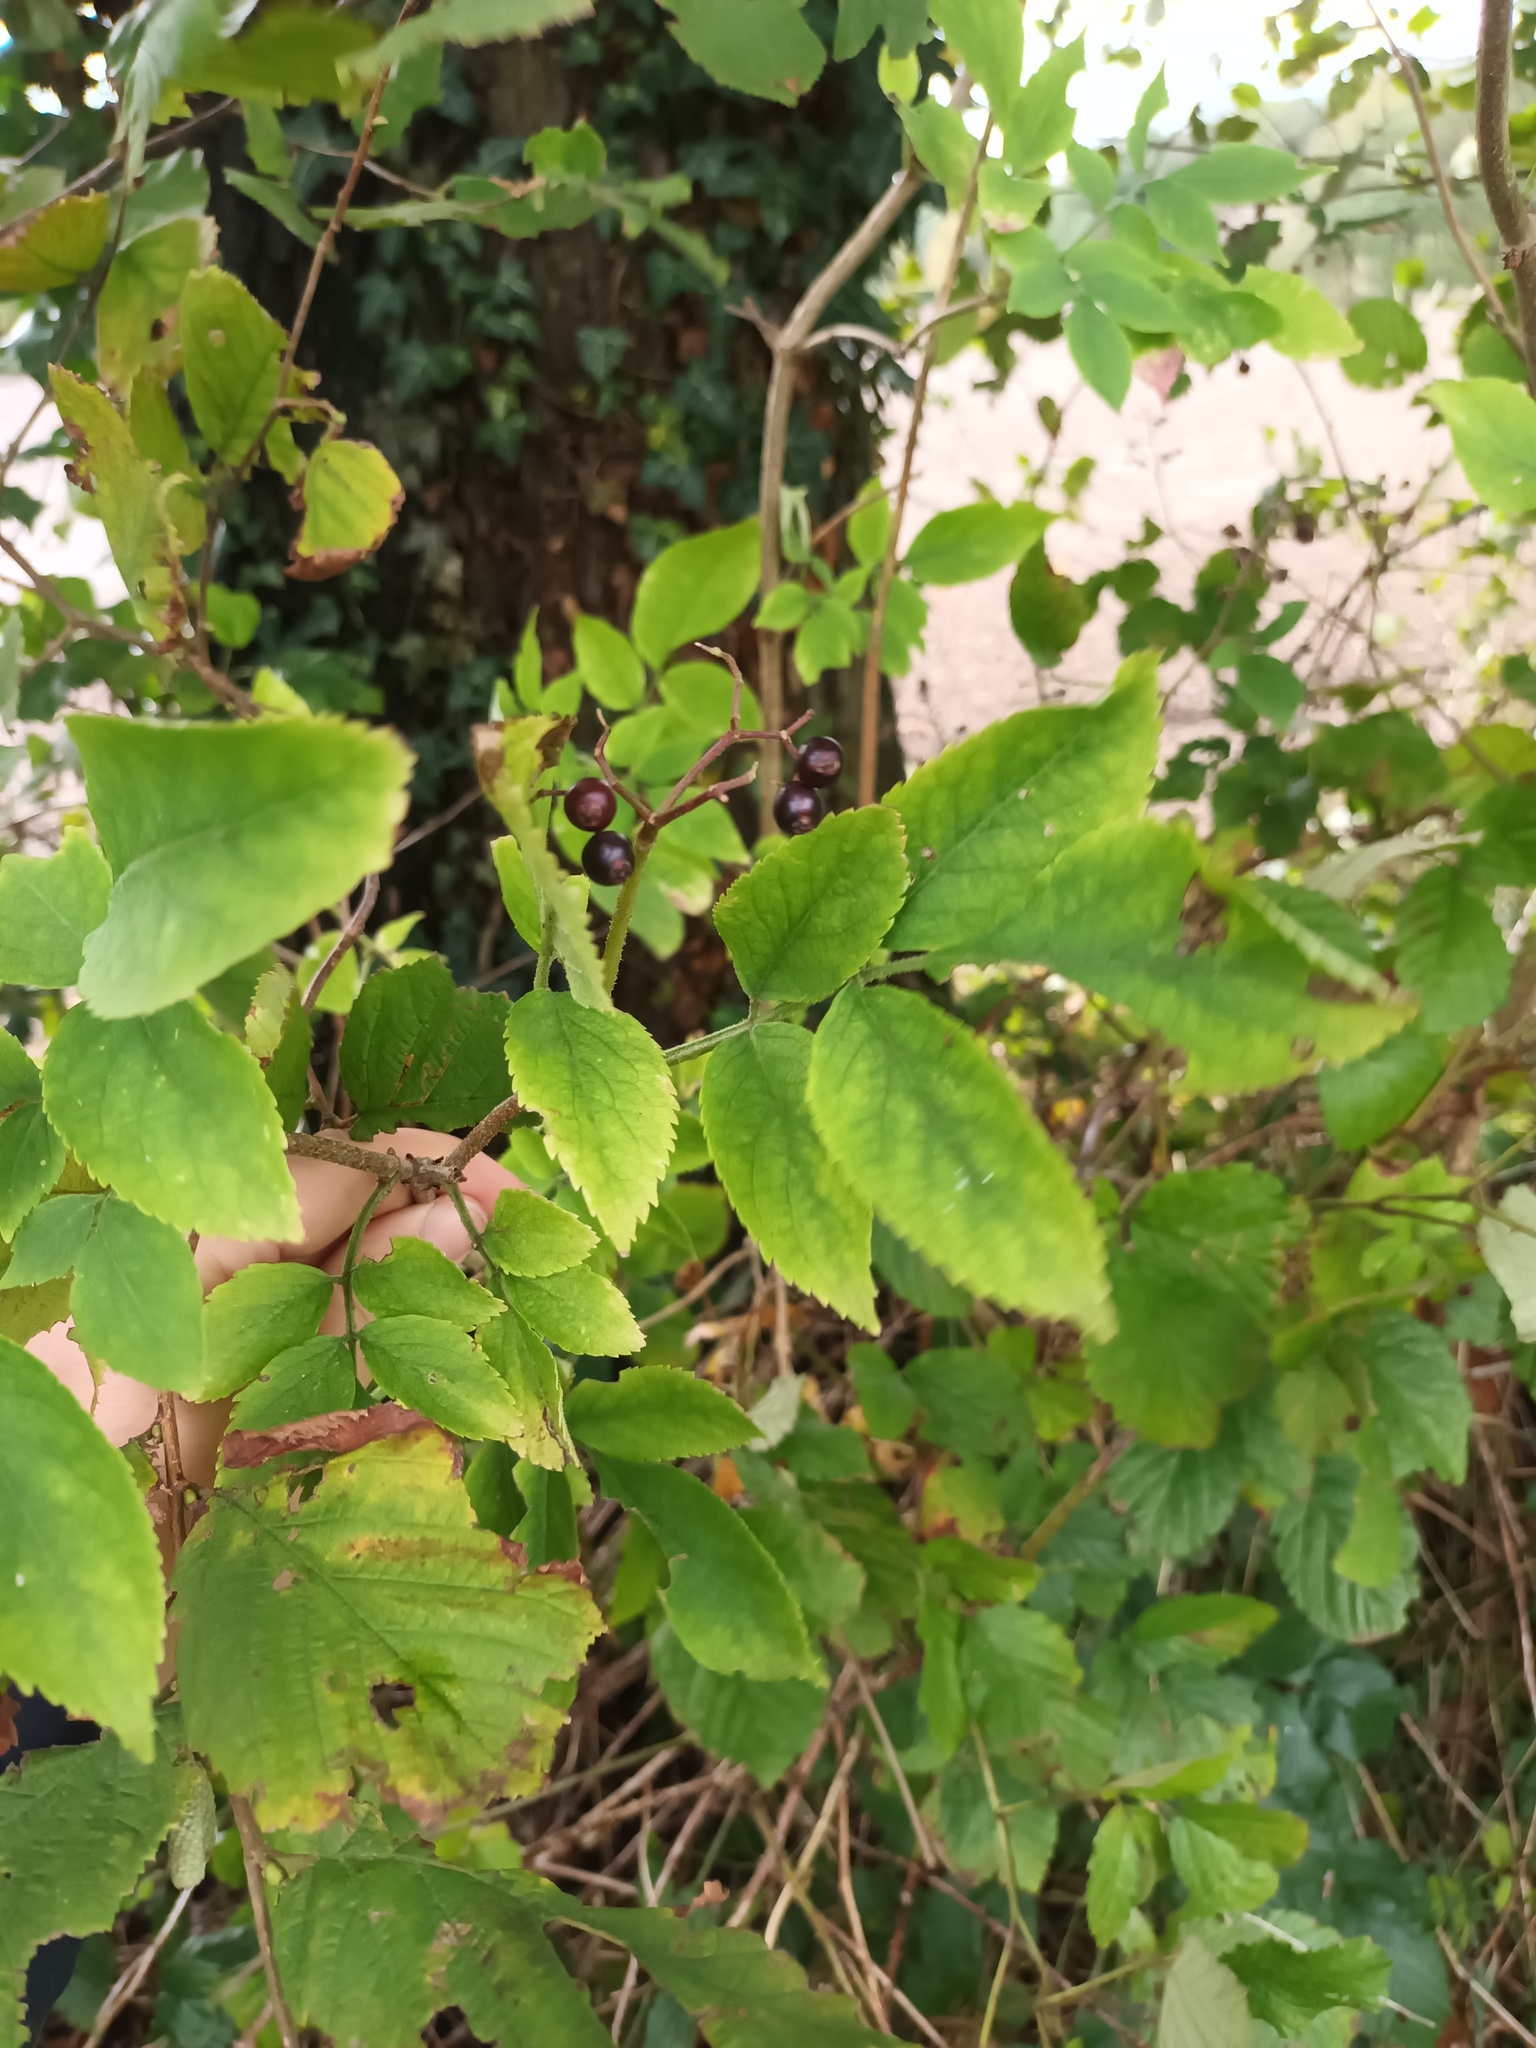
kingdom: Plantae
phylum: Tracheophyta
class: Magnoliopsida
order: Dipsacales
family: Viburnaceae
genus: Sambucus
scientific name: Sambucus nigra
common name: Elder
